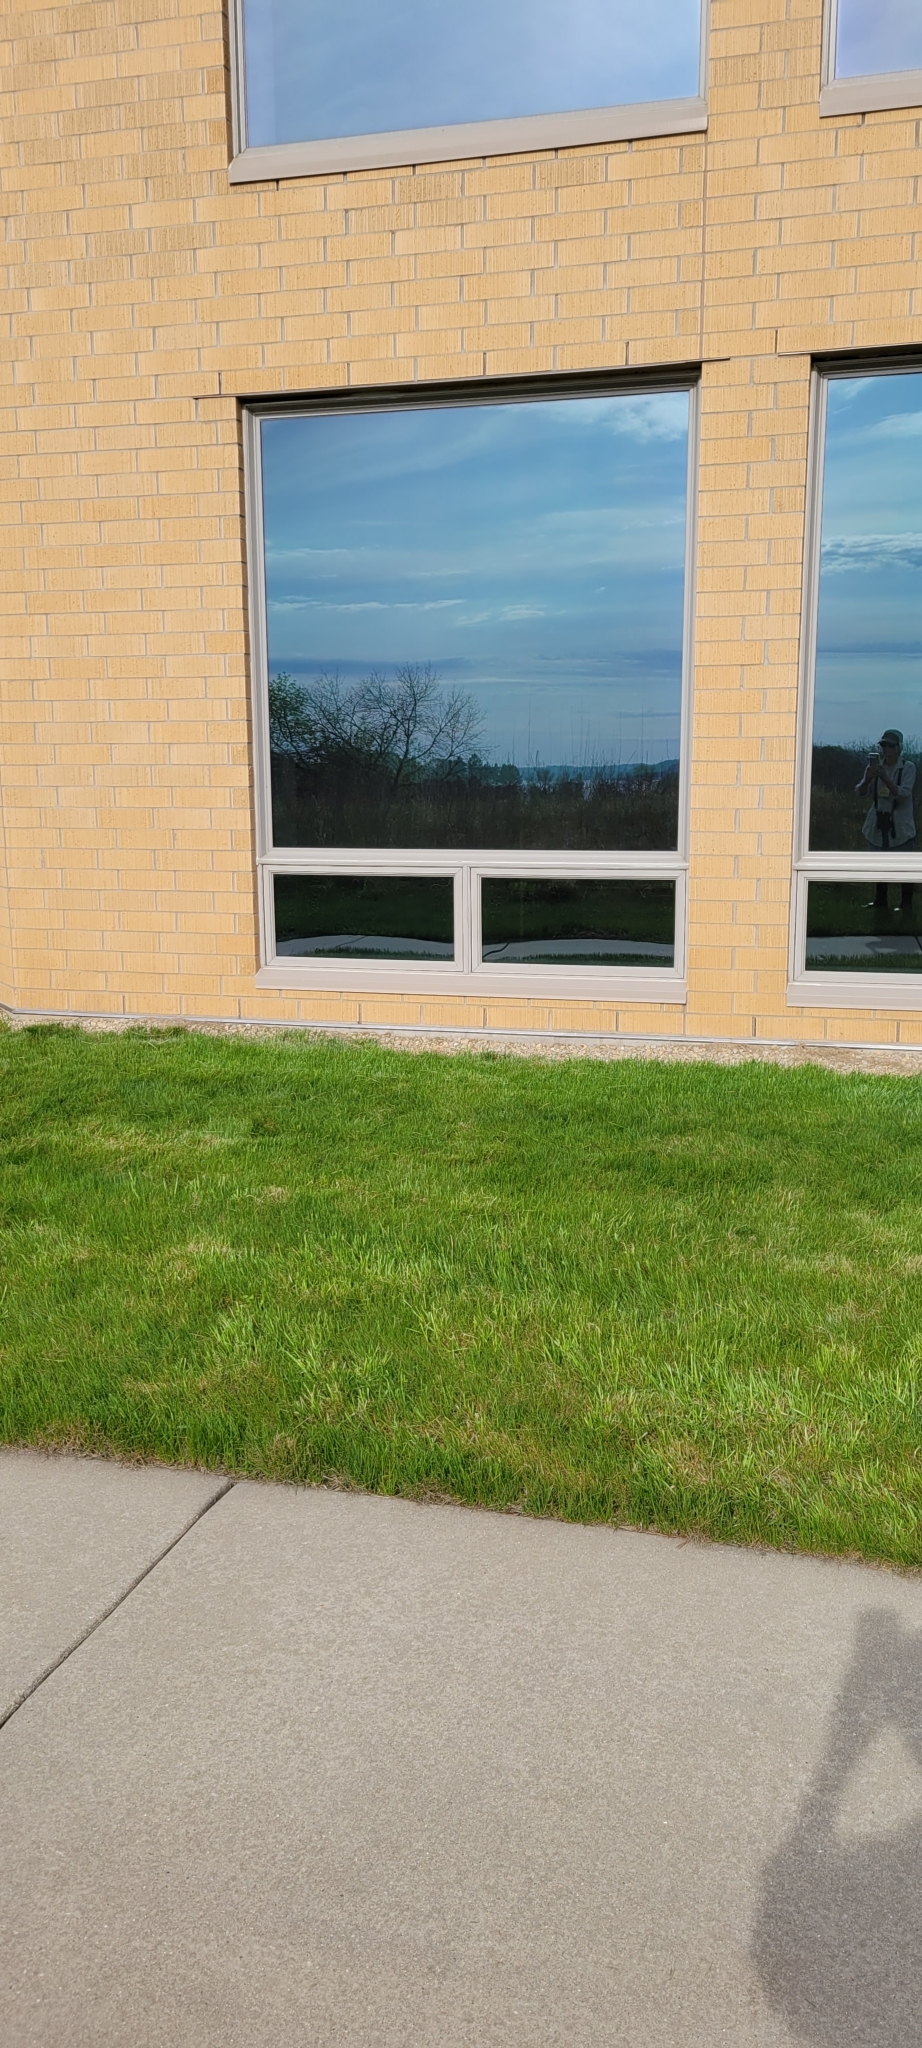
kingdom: Animalia
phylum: Chordata
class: Aves
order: Passeriformes
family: Mimidae
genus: Dumetella
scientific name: Dumetella carolinensis
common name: Gray catbird
